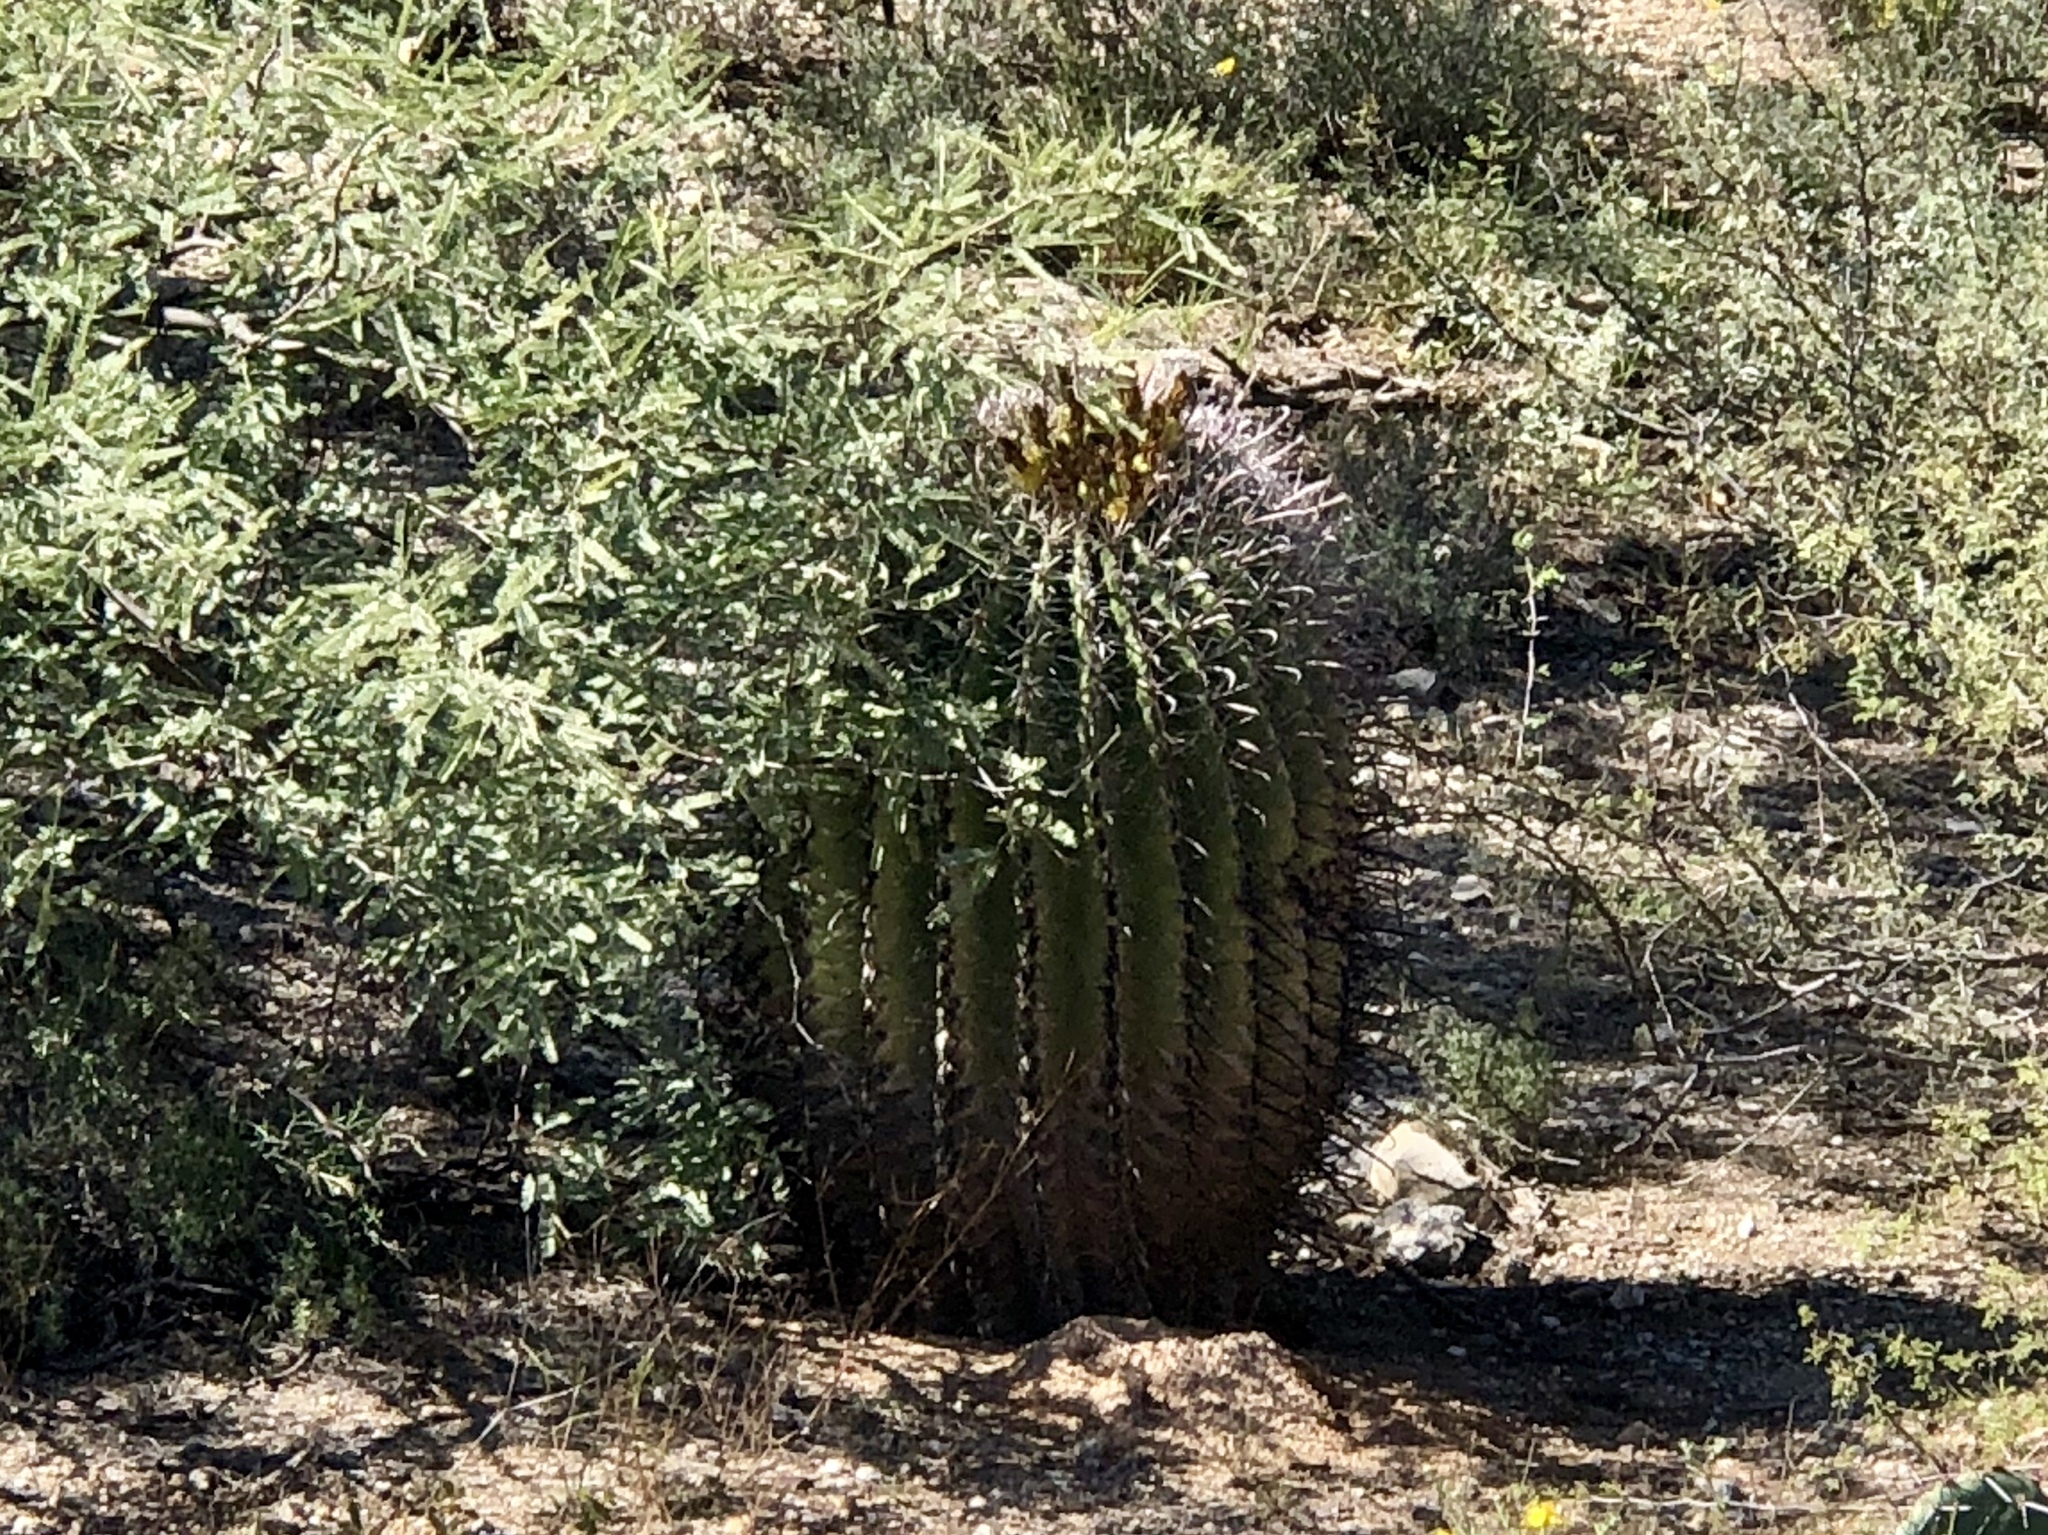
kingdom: Plantae
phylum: Tracheophyta
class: Magnoliopsida
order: Caryophyllales
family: Cactaceae
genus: Ferocactus
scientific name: Ferocactus wislizeni
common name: Candy barrel cactus
